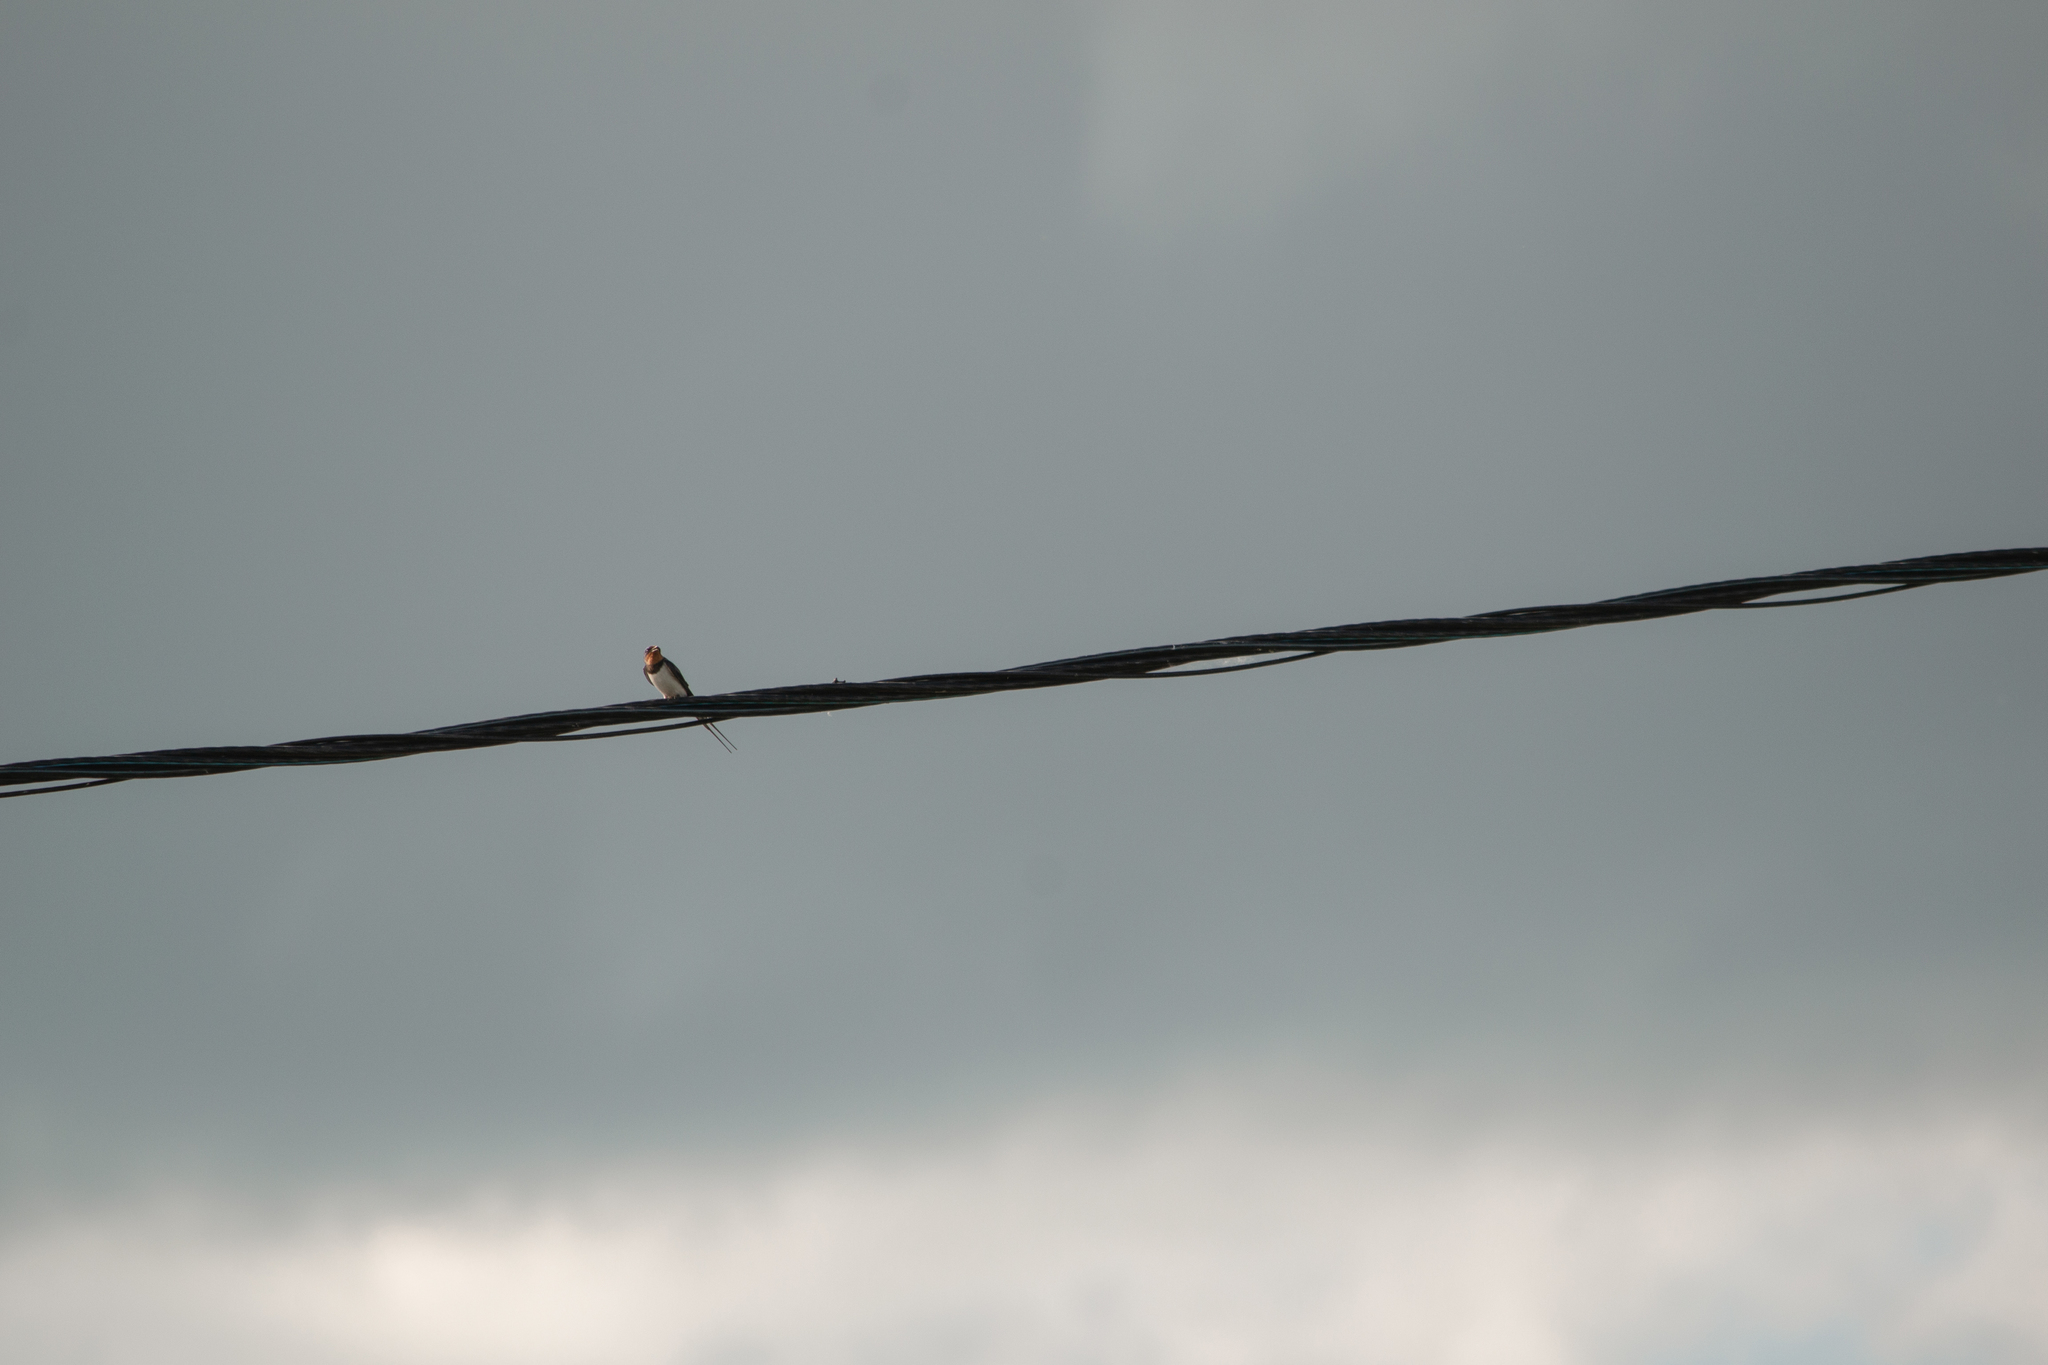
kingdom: Animalia
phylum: Chordata
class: Aves
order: Passeriformes
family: Hirundinidae
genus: Hirundo
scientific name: Hirundo rustica
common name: Barn swallow
